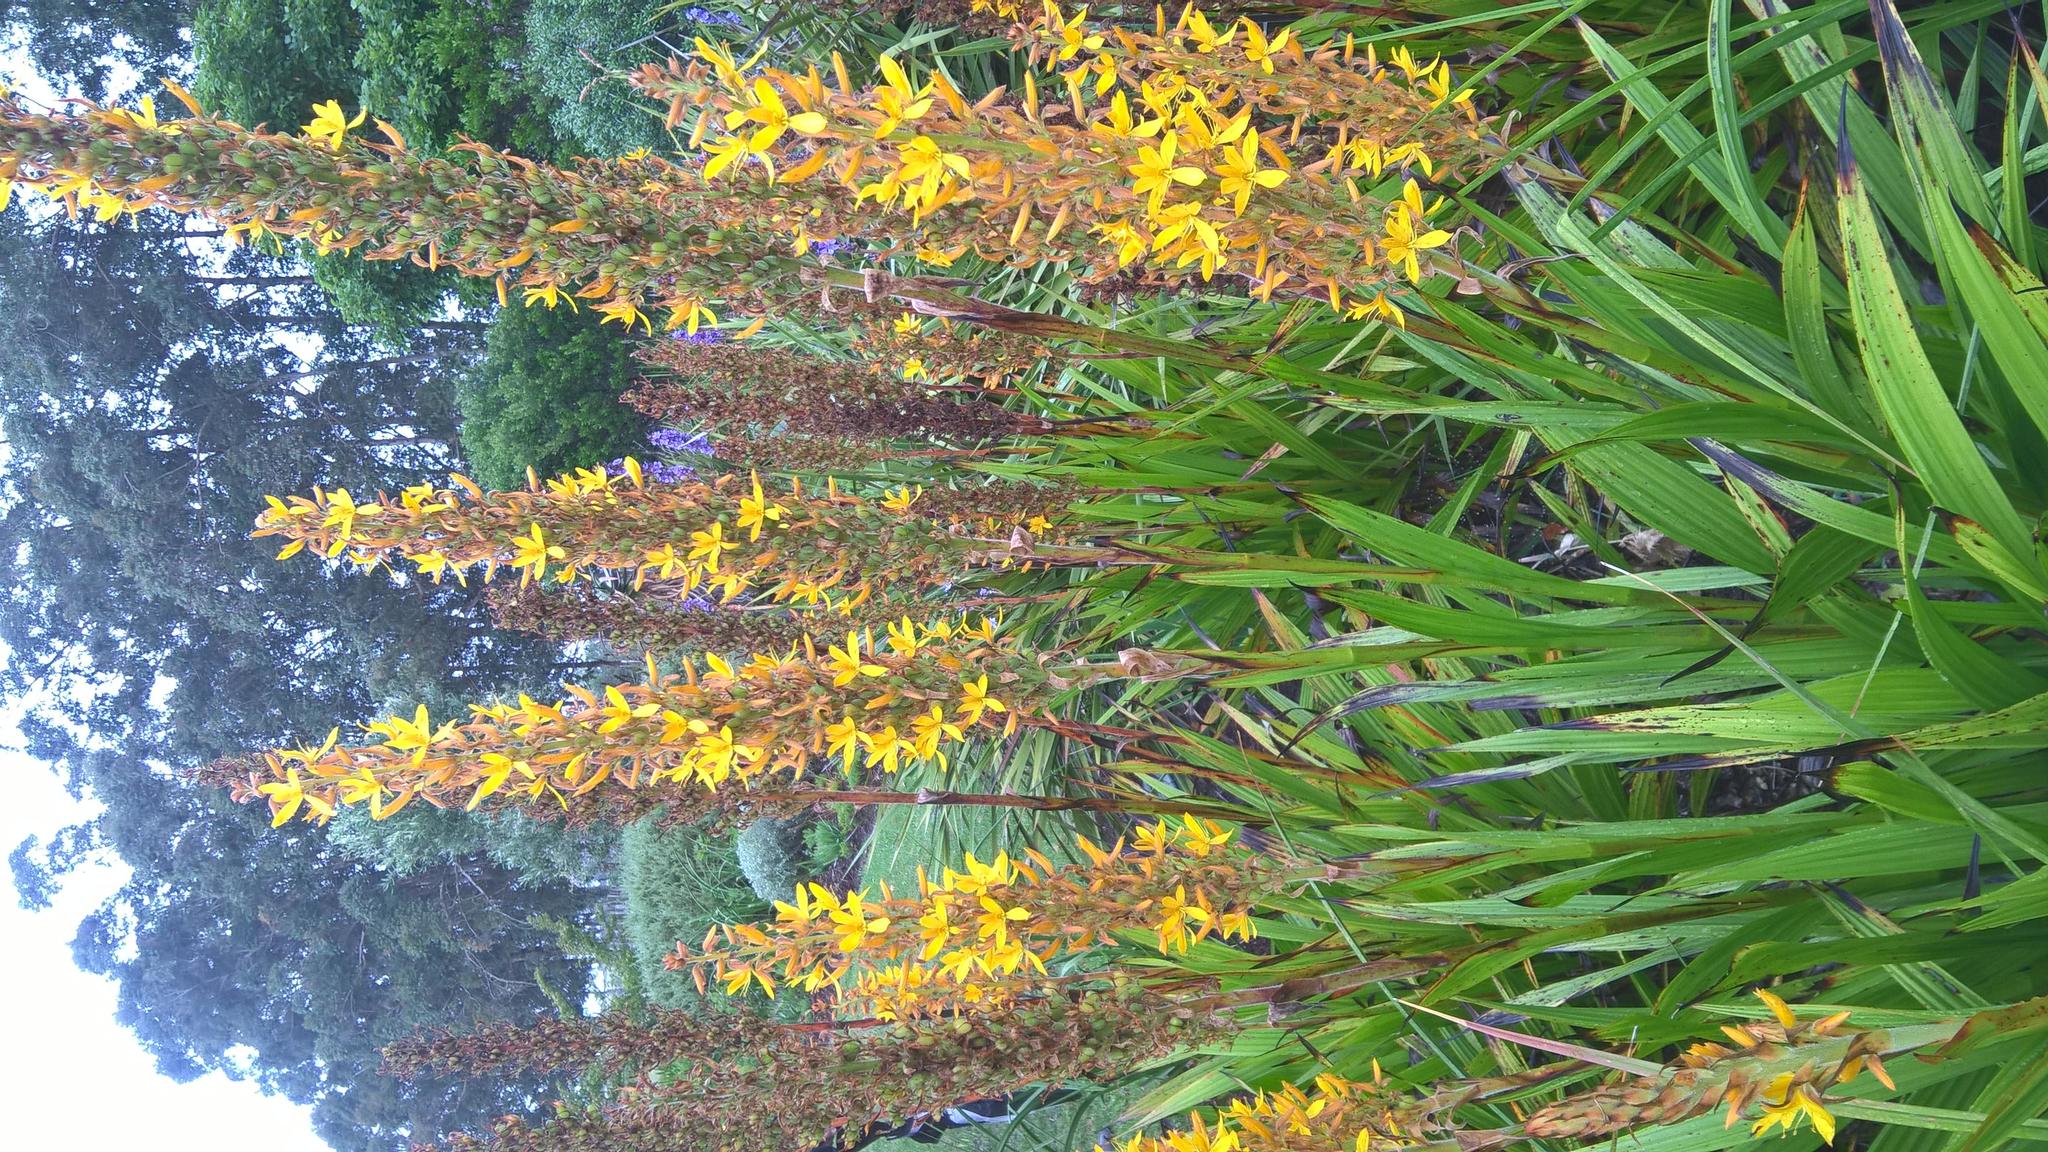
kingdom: Plantae
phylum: Tracheophyta
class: Liliopsida
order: Commelinales
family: Haemodoraceae
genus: Wachendorfia
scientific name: Wachendorfia thyrsiflora
